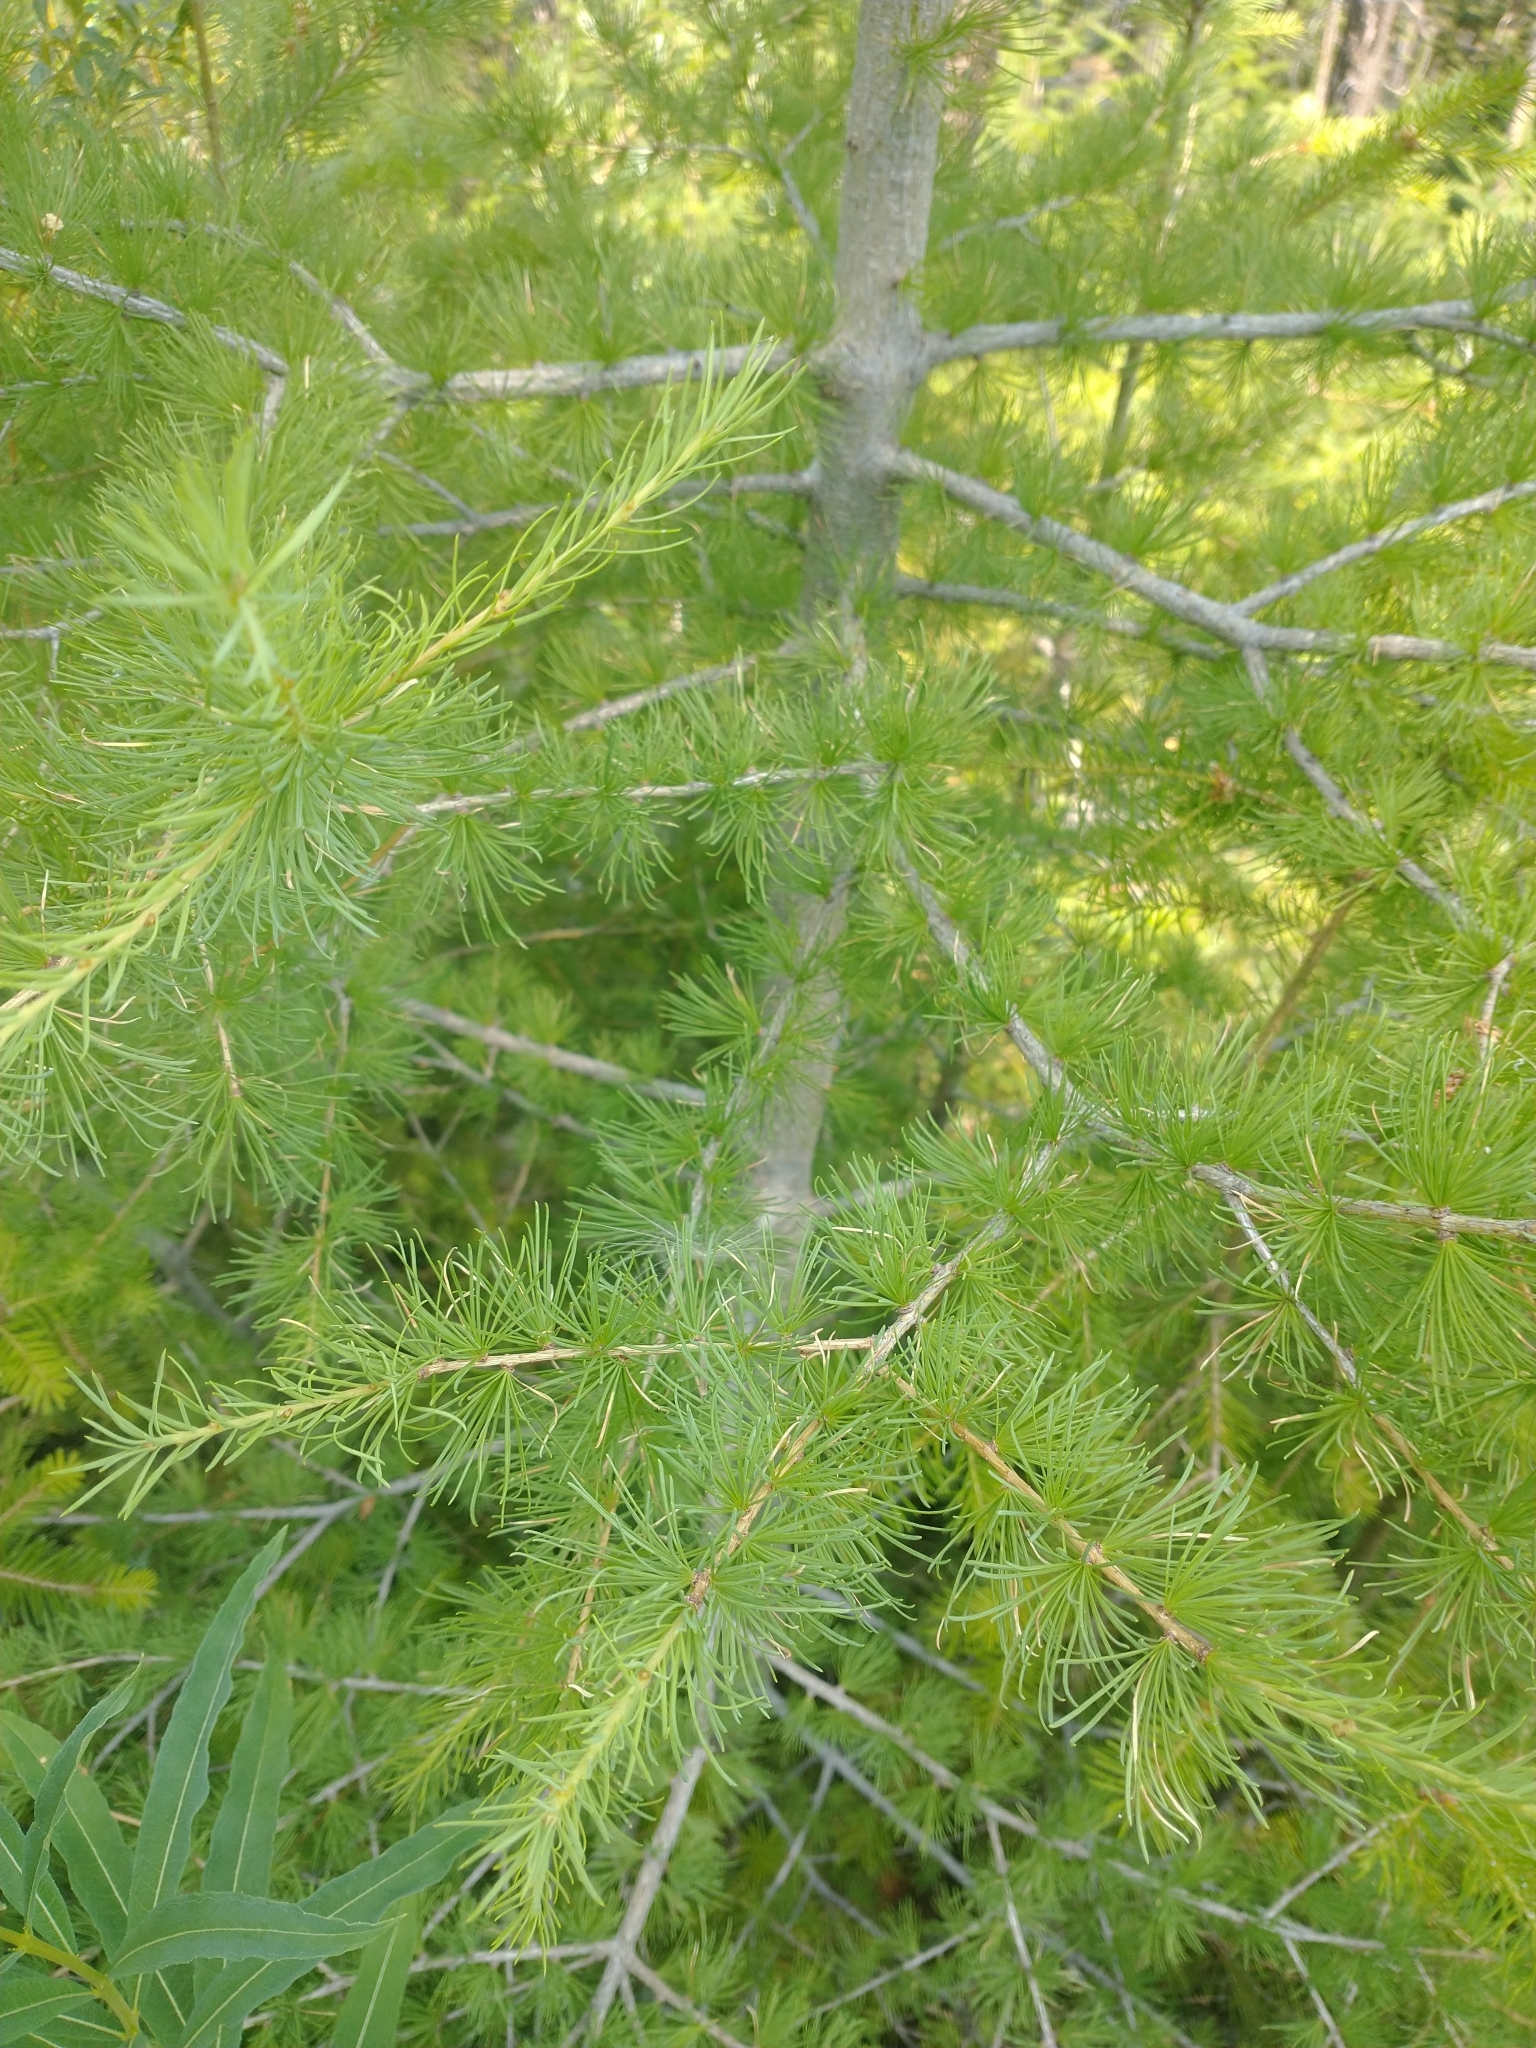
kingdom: Plantae
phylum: Tracheophyta
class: Pinopsida
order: Pinales
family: Pinaceae
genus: Larix
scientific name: Larix occidentalis
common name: Western larch
